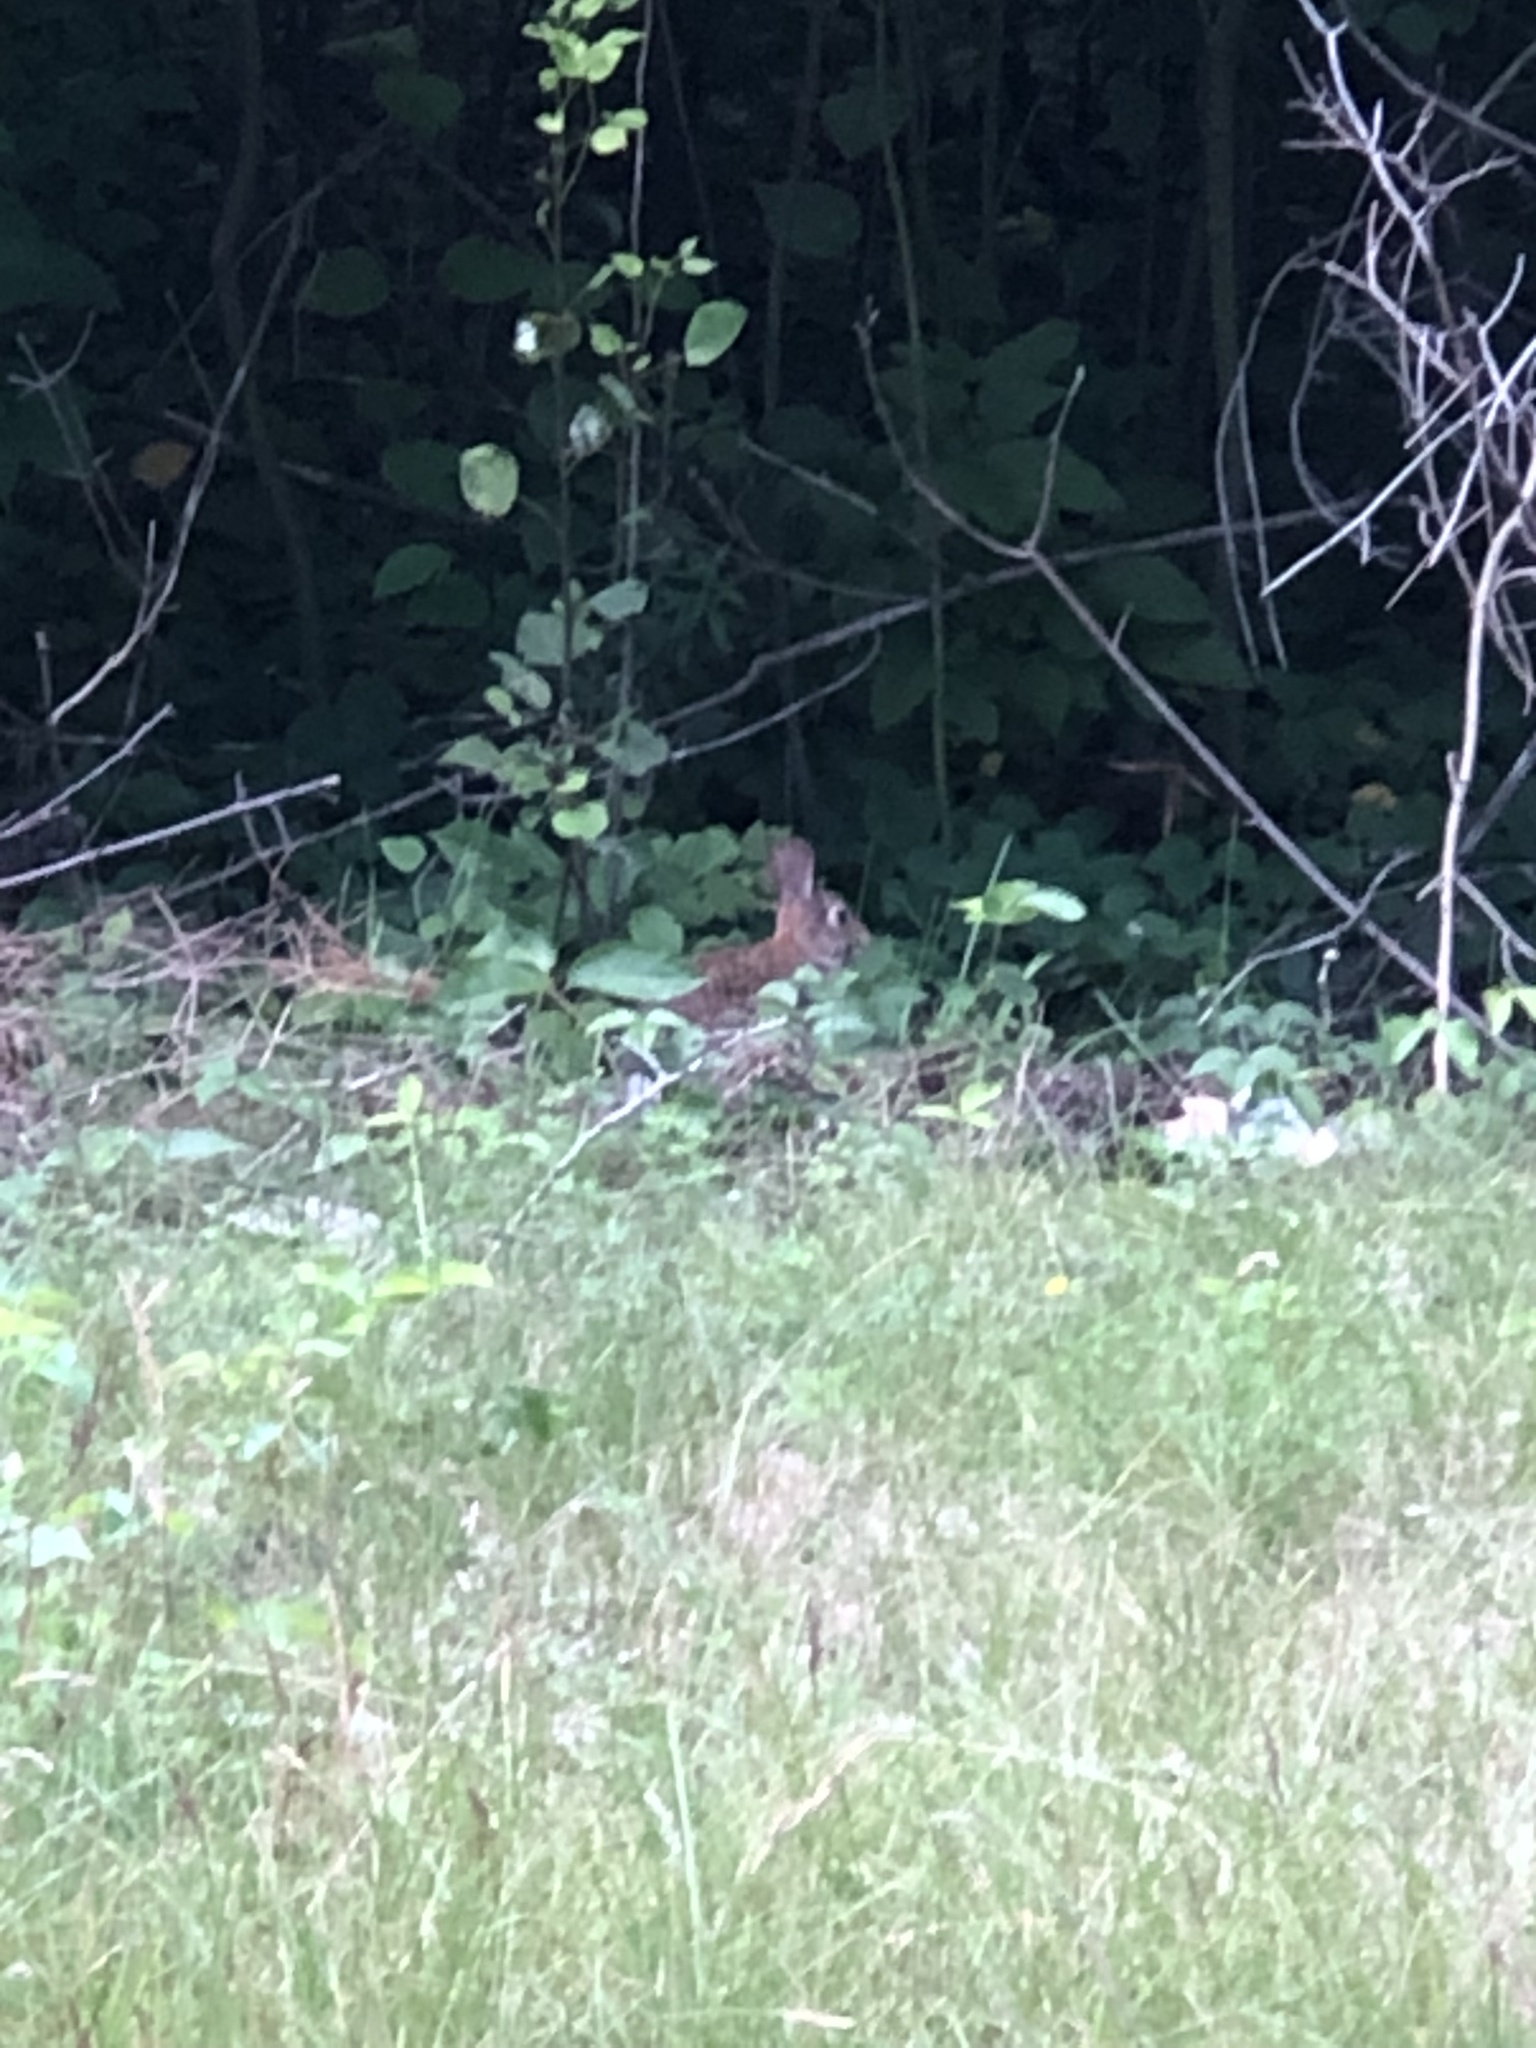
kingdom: Animalia
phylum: Chordata
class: Mammalia
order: Lagomorpha
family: Leporidae
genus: Sylvilagus
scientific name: Sylvilagus floridanus
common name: Eastern cottontail
